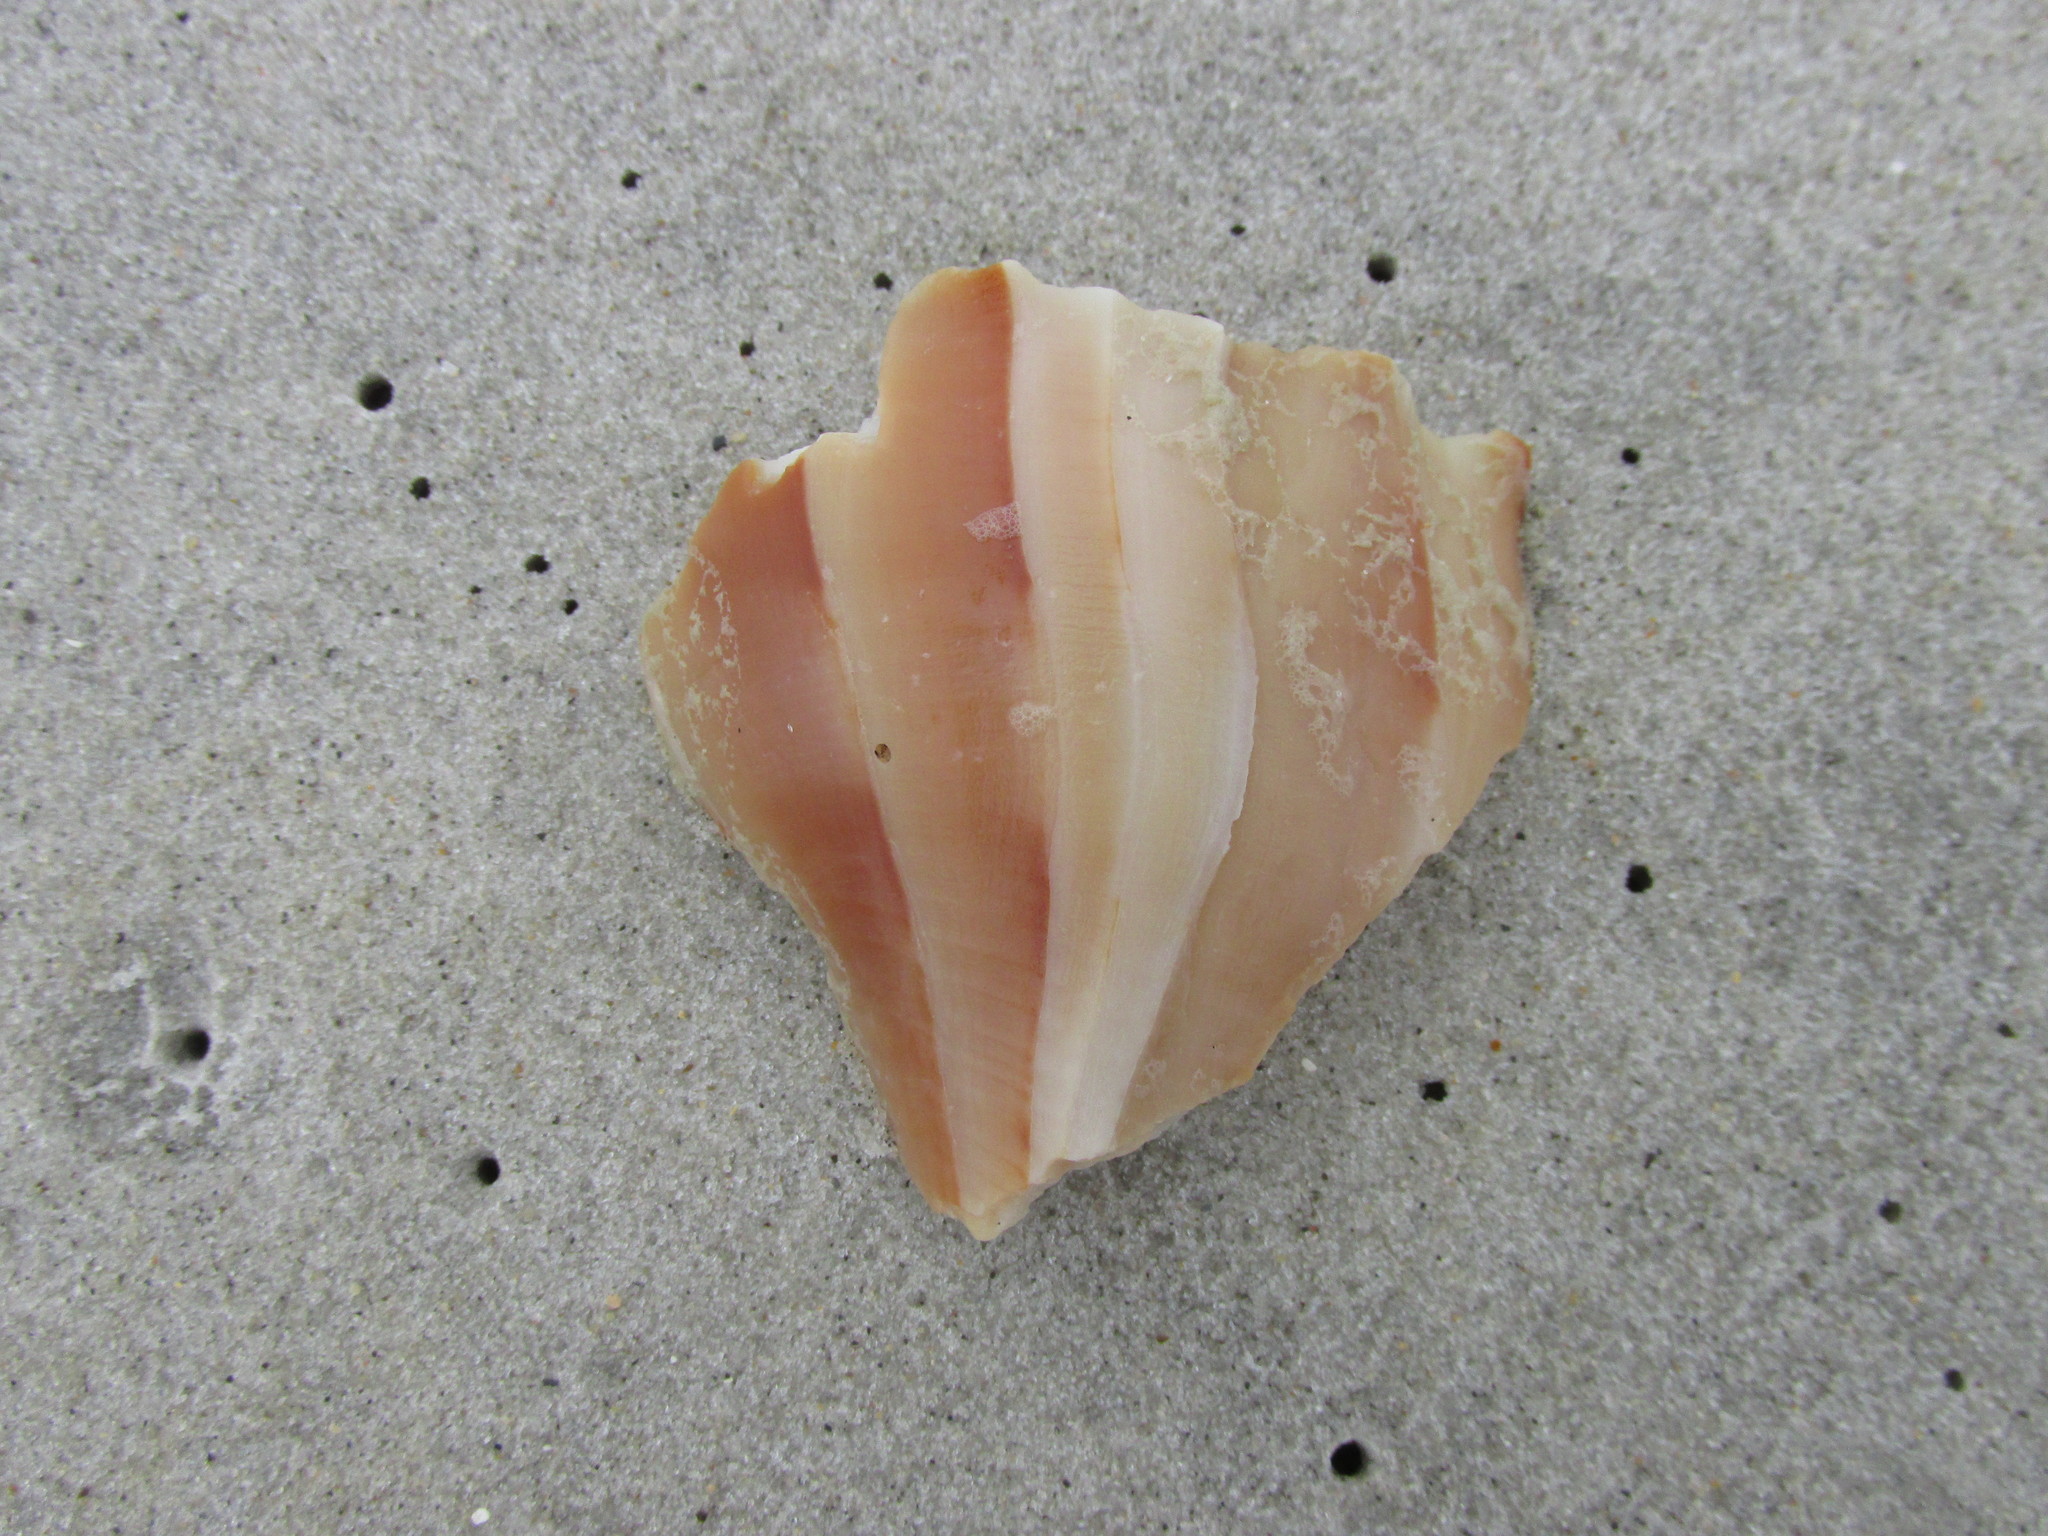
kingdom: Animalia
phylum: Mollusca
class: Gastropoda
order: Neogastropoda
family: Busyconidae
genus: Sinistrofulgur
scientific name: Sinistrofulgur sinistrum
